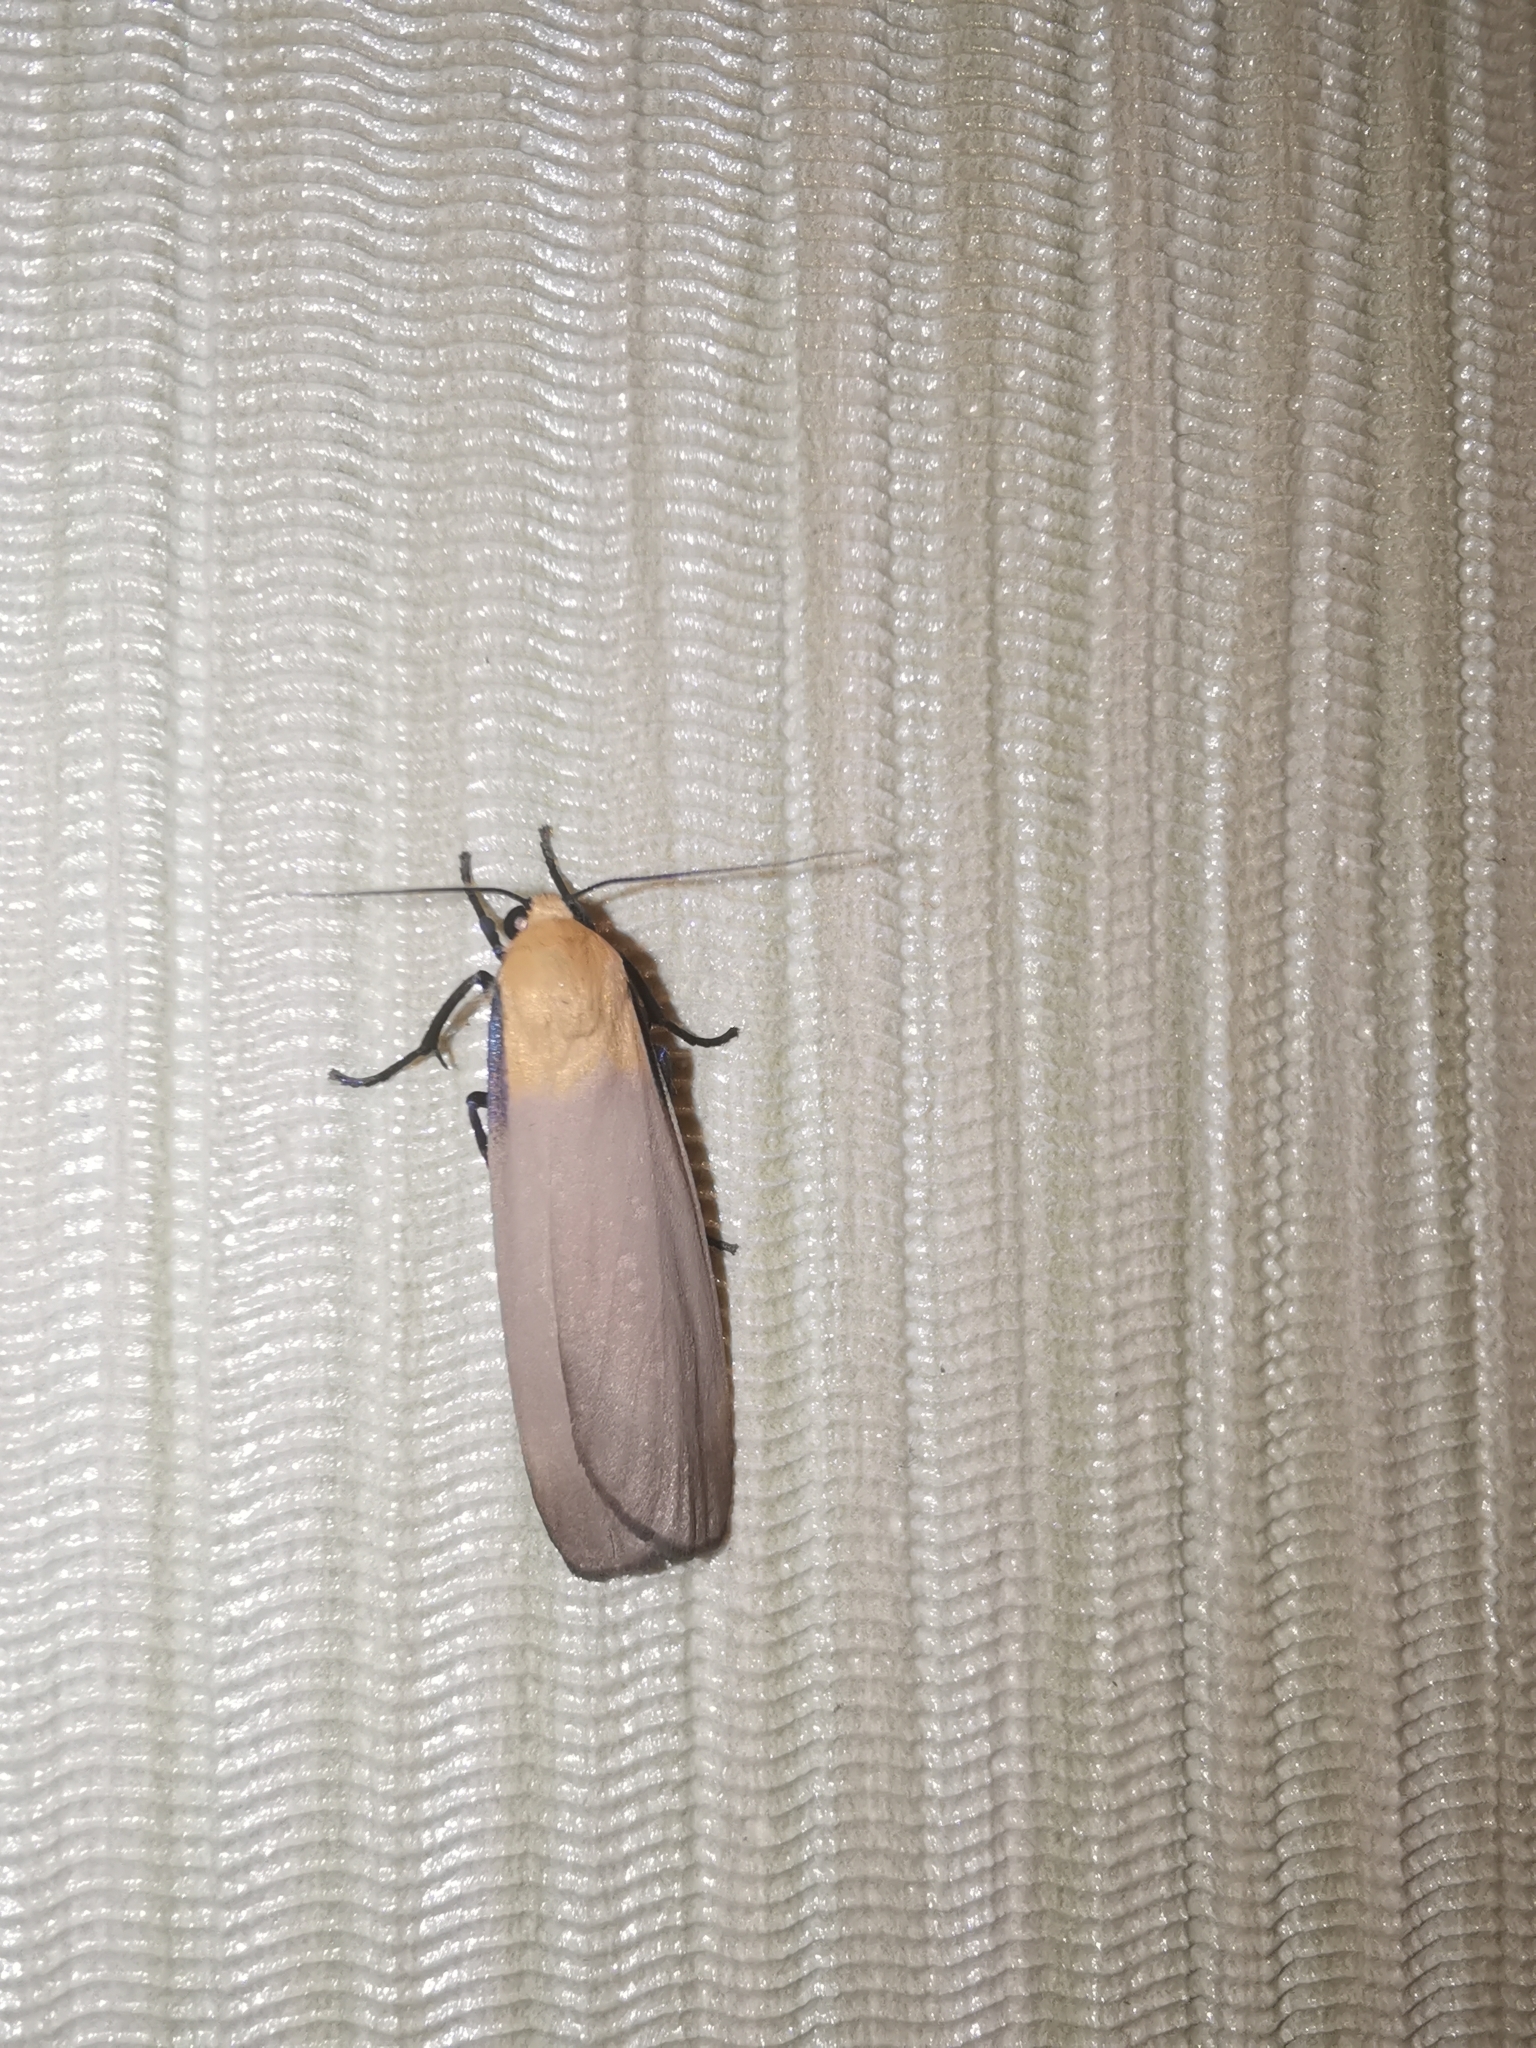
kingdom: Animalia
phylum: Arthropoda
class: Insecta
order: Lepidoptera
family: Erebidae
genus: Lithosia
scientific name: Lithosia quadra
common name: Four-spotted footman
